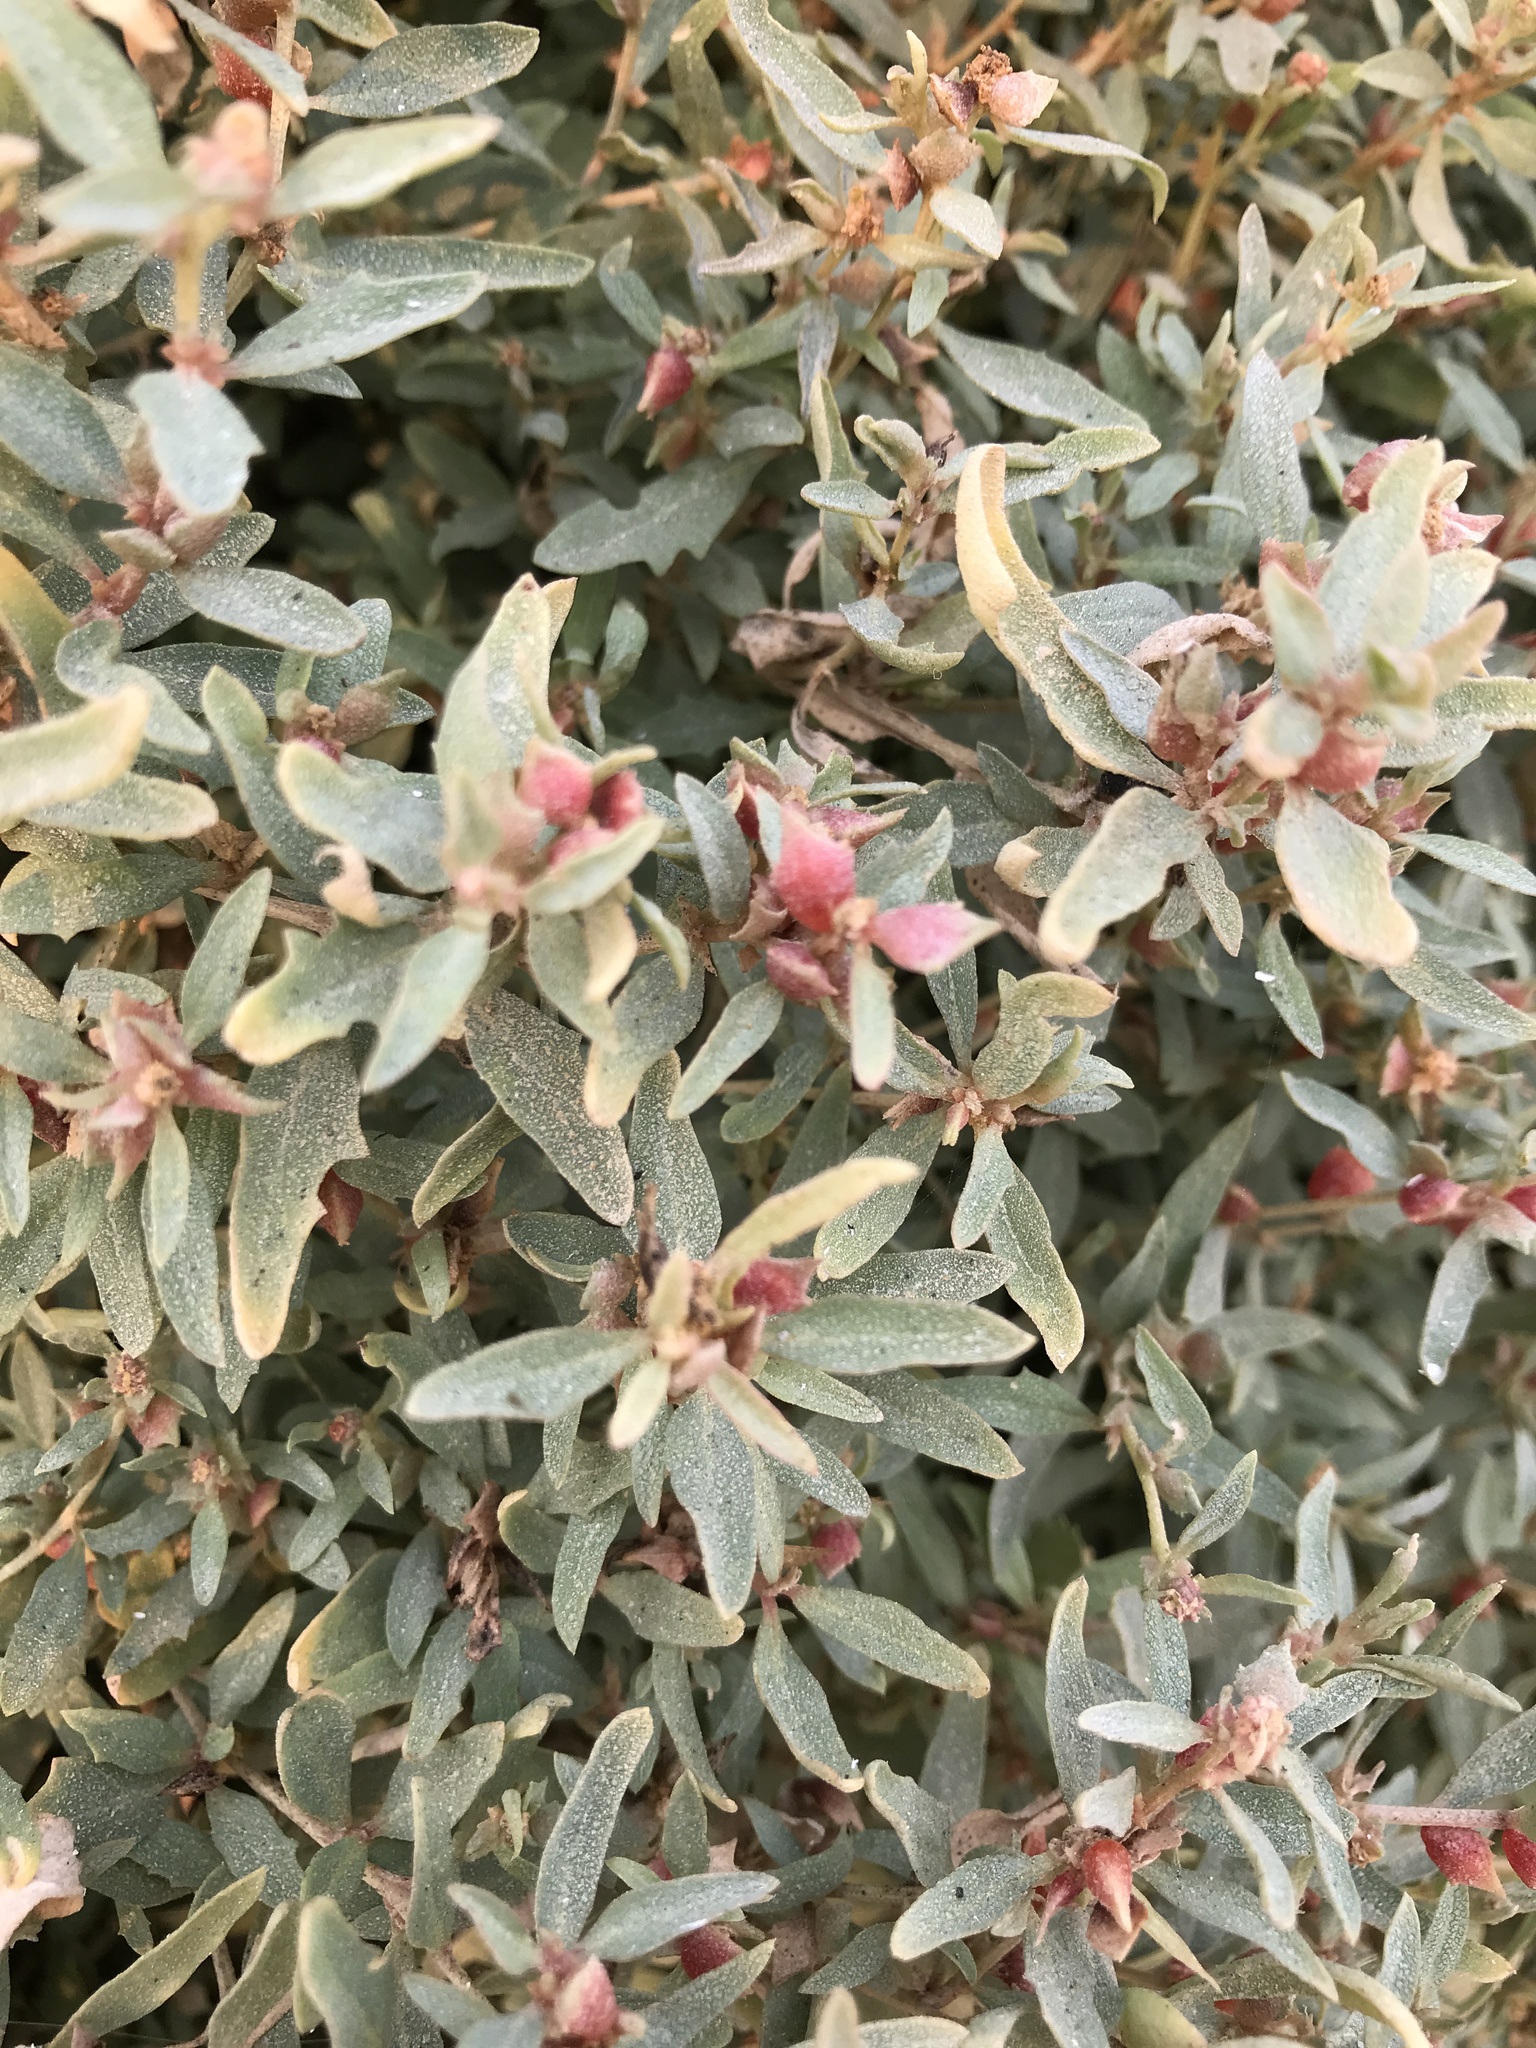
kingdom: Plantae
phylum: Tracheophyta
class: Magnoliopsida
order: Caryophyllales
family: Amaranthaceae
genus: Atriplex
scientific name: Atriplex semibaccata
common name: Australian saltbush
